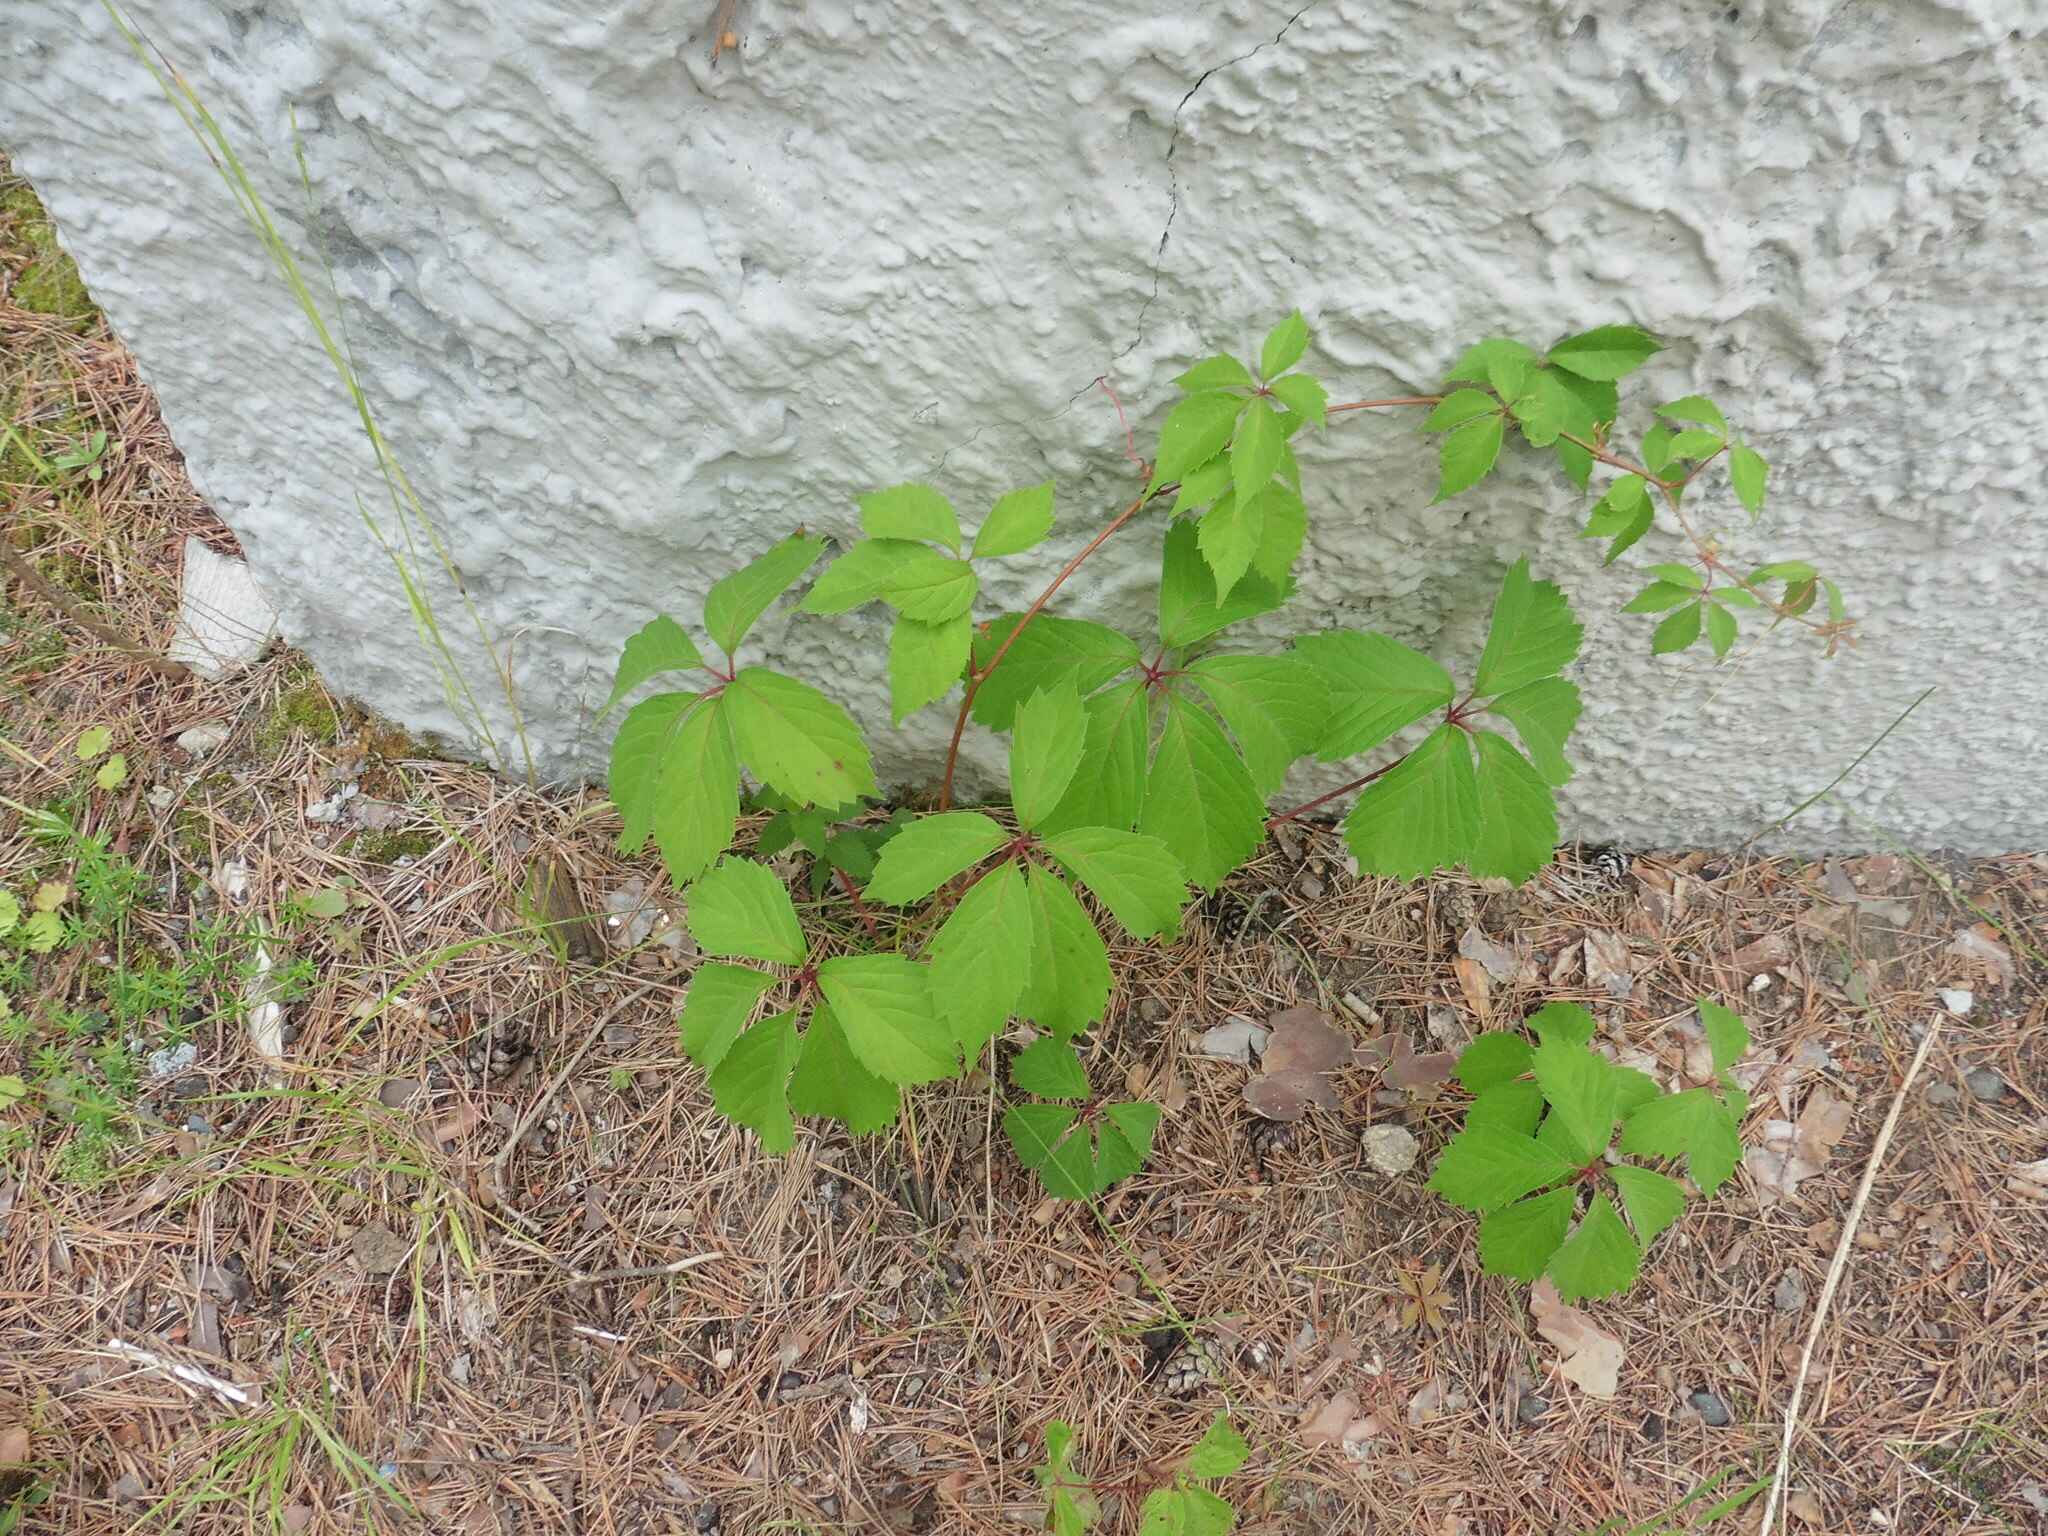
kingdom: Plantae
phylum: Tracheophyta
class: Magnoliopsida
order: Vitales
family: Vitaceae
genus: Parthenocissus
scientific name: Parthenocissus inserta
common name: False virginia-creeper
